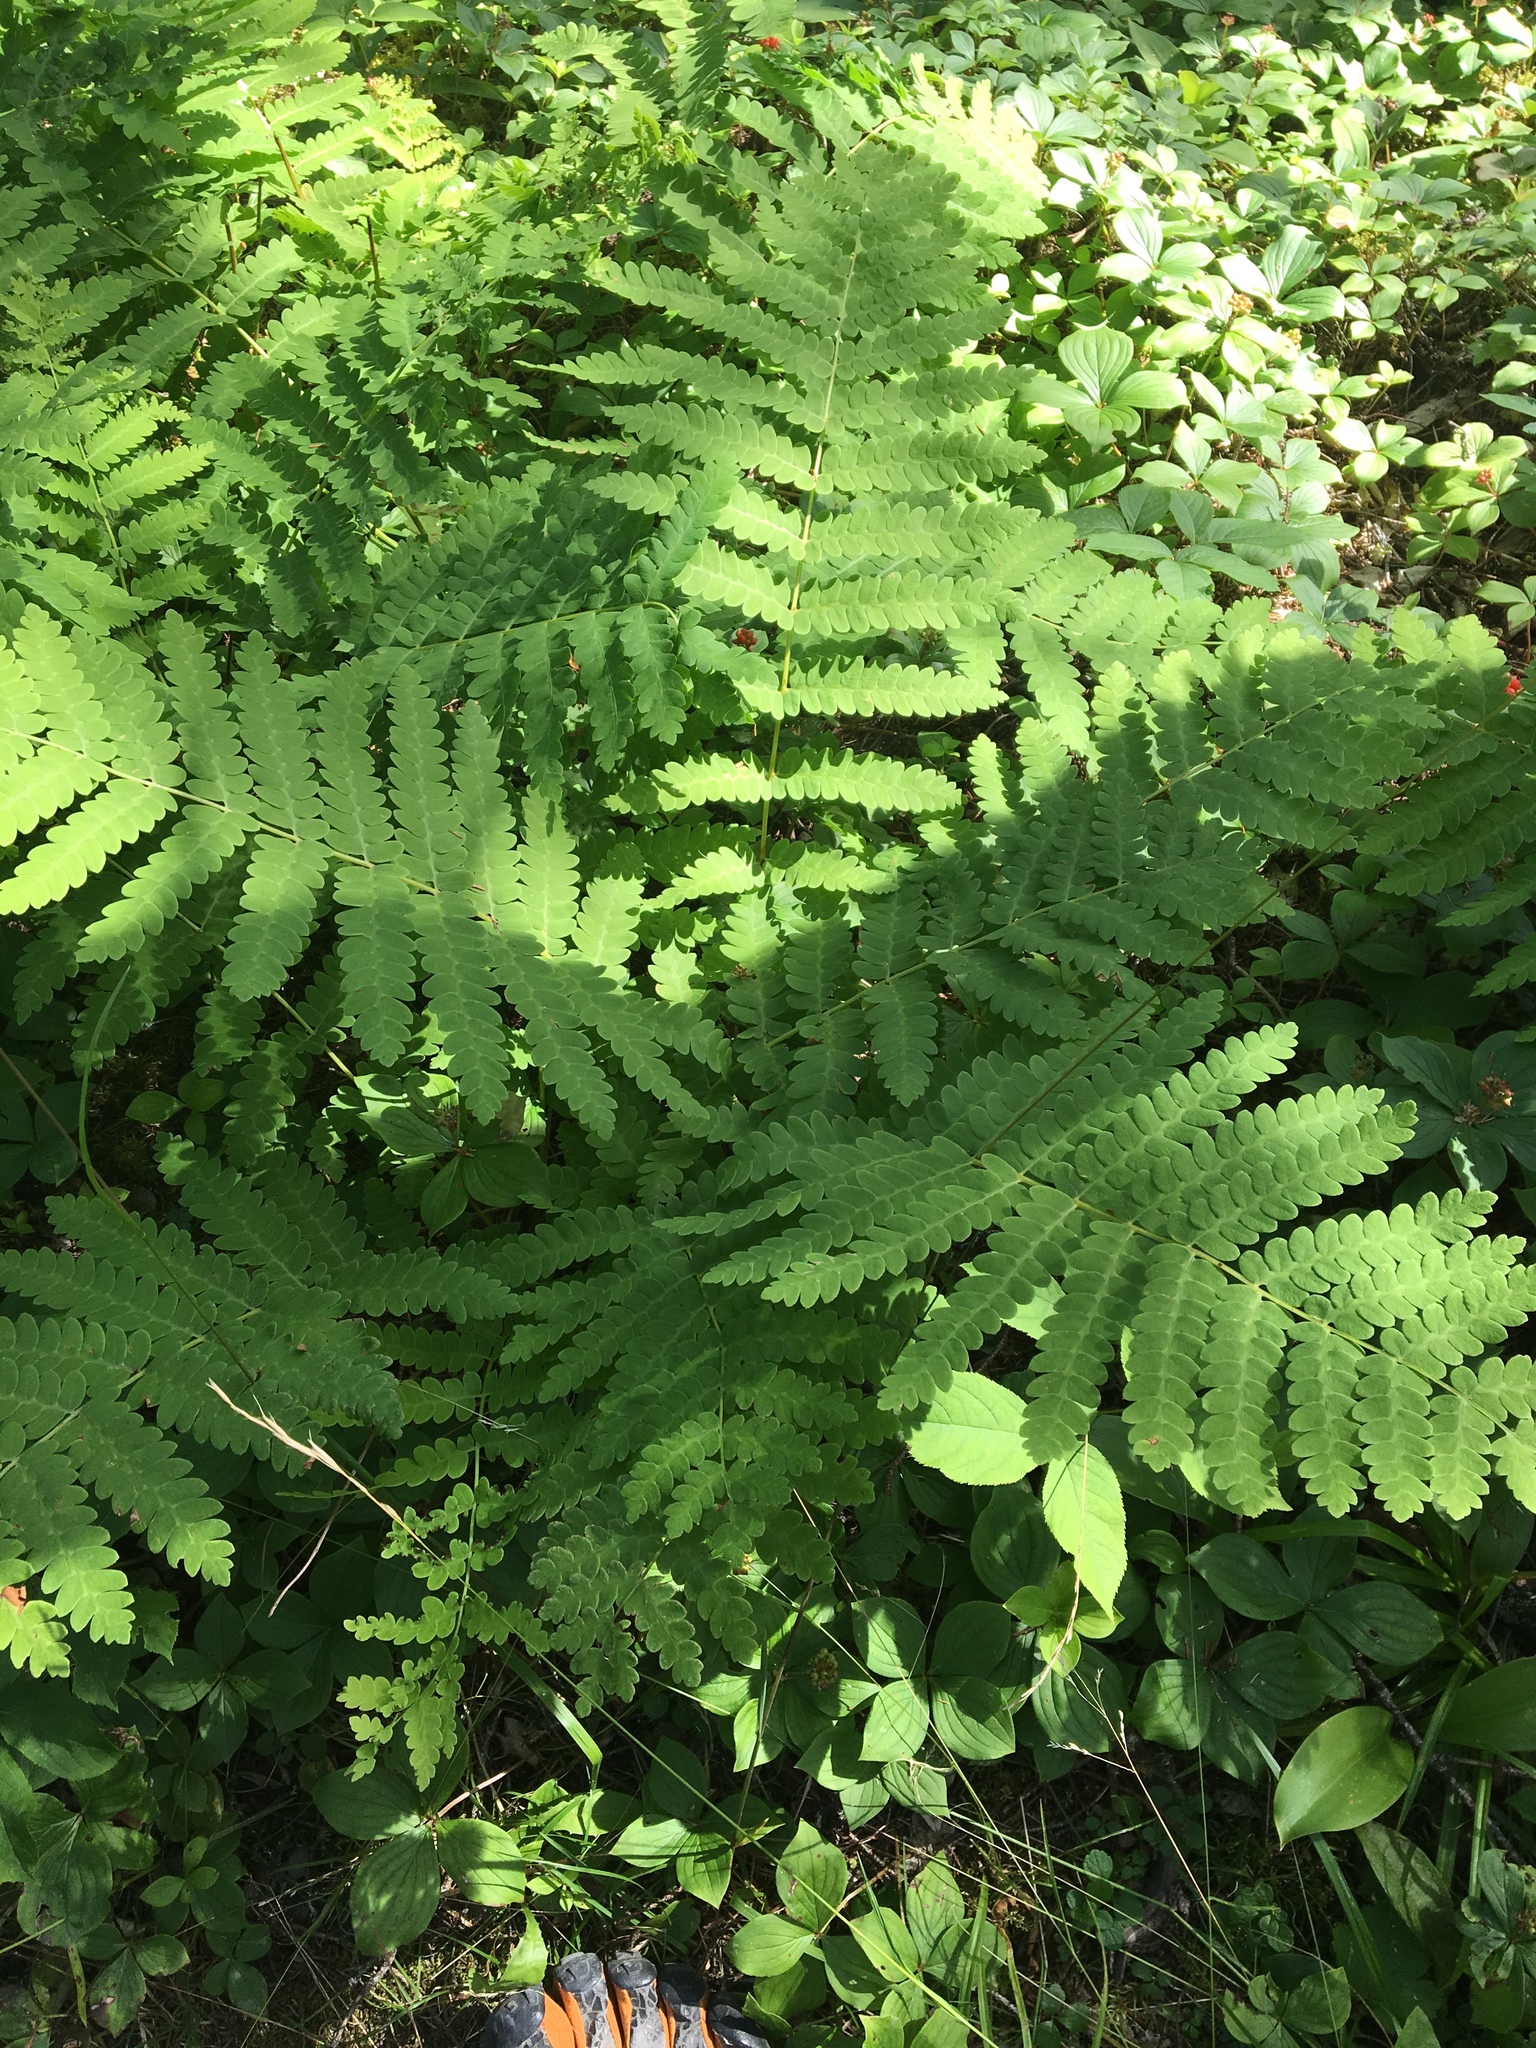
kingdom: Plantae
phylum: Tracheophyta
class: Polypodiopsida
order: Osmundales
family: Osmundaceae
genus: Claytosmunda
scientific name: Claytosmunda claytoniana
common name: Clayton's fern
